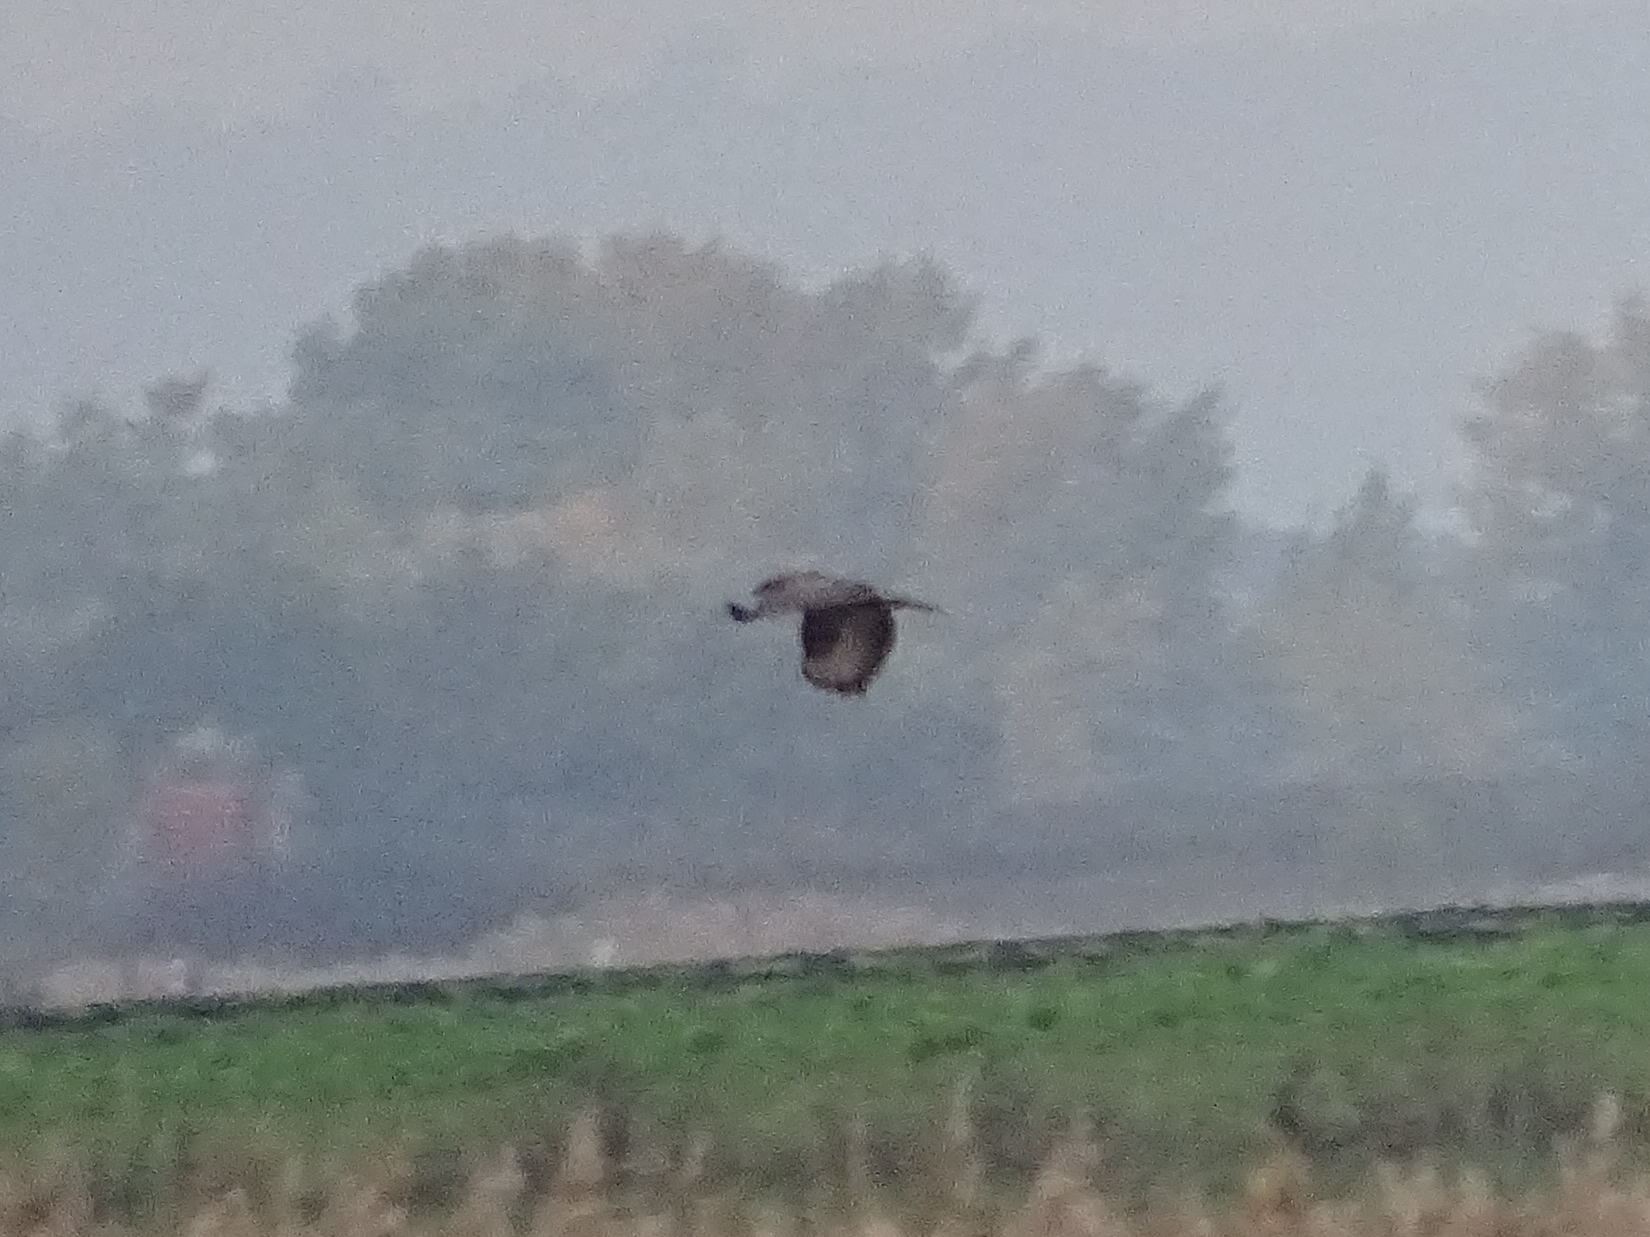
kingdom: Animalia
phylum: Chordata
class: Aves
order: Accipitriformes
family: Accipitridae
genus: Buteo
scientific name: Buteo buteo
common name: Common buzzard
